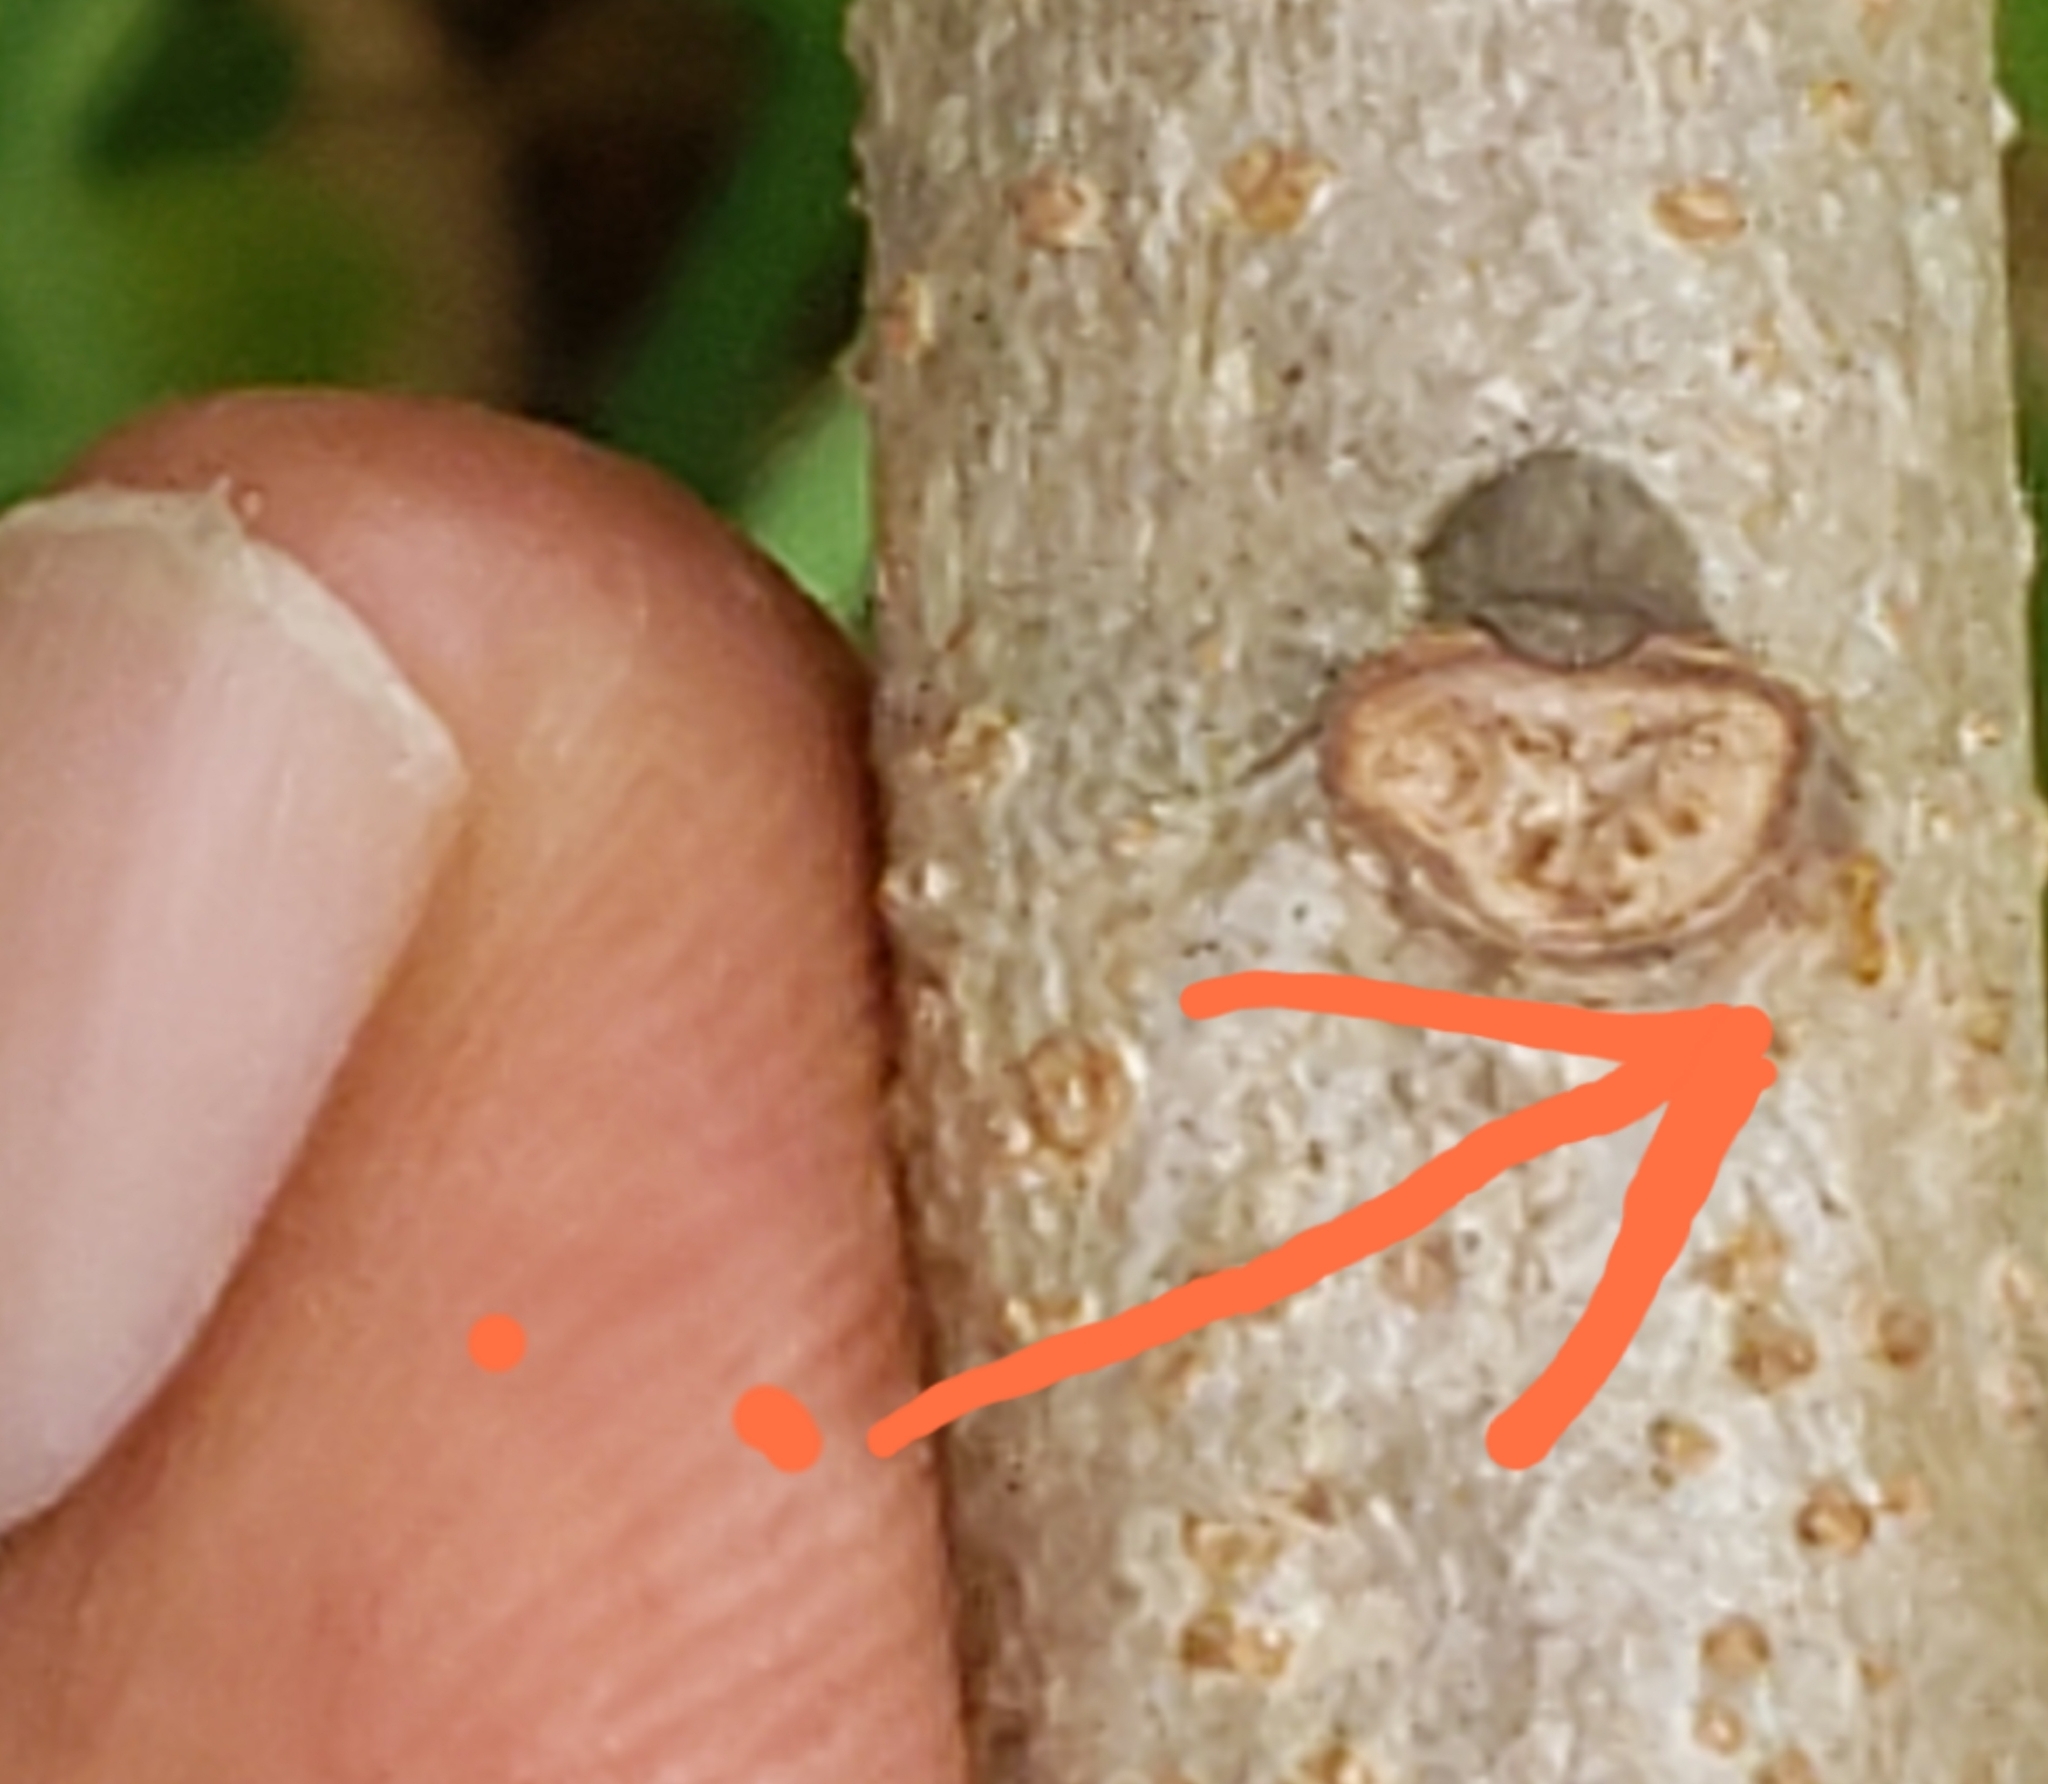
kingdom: Animalia
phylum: Arthropoda
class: Insecta
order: Hymenoptera
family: Formicidae
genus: Wasmannia
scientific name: Wasmannia auropunctata
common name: Little fire ant
